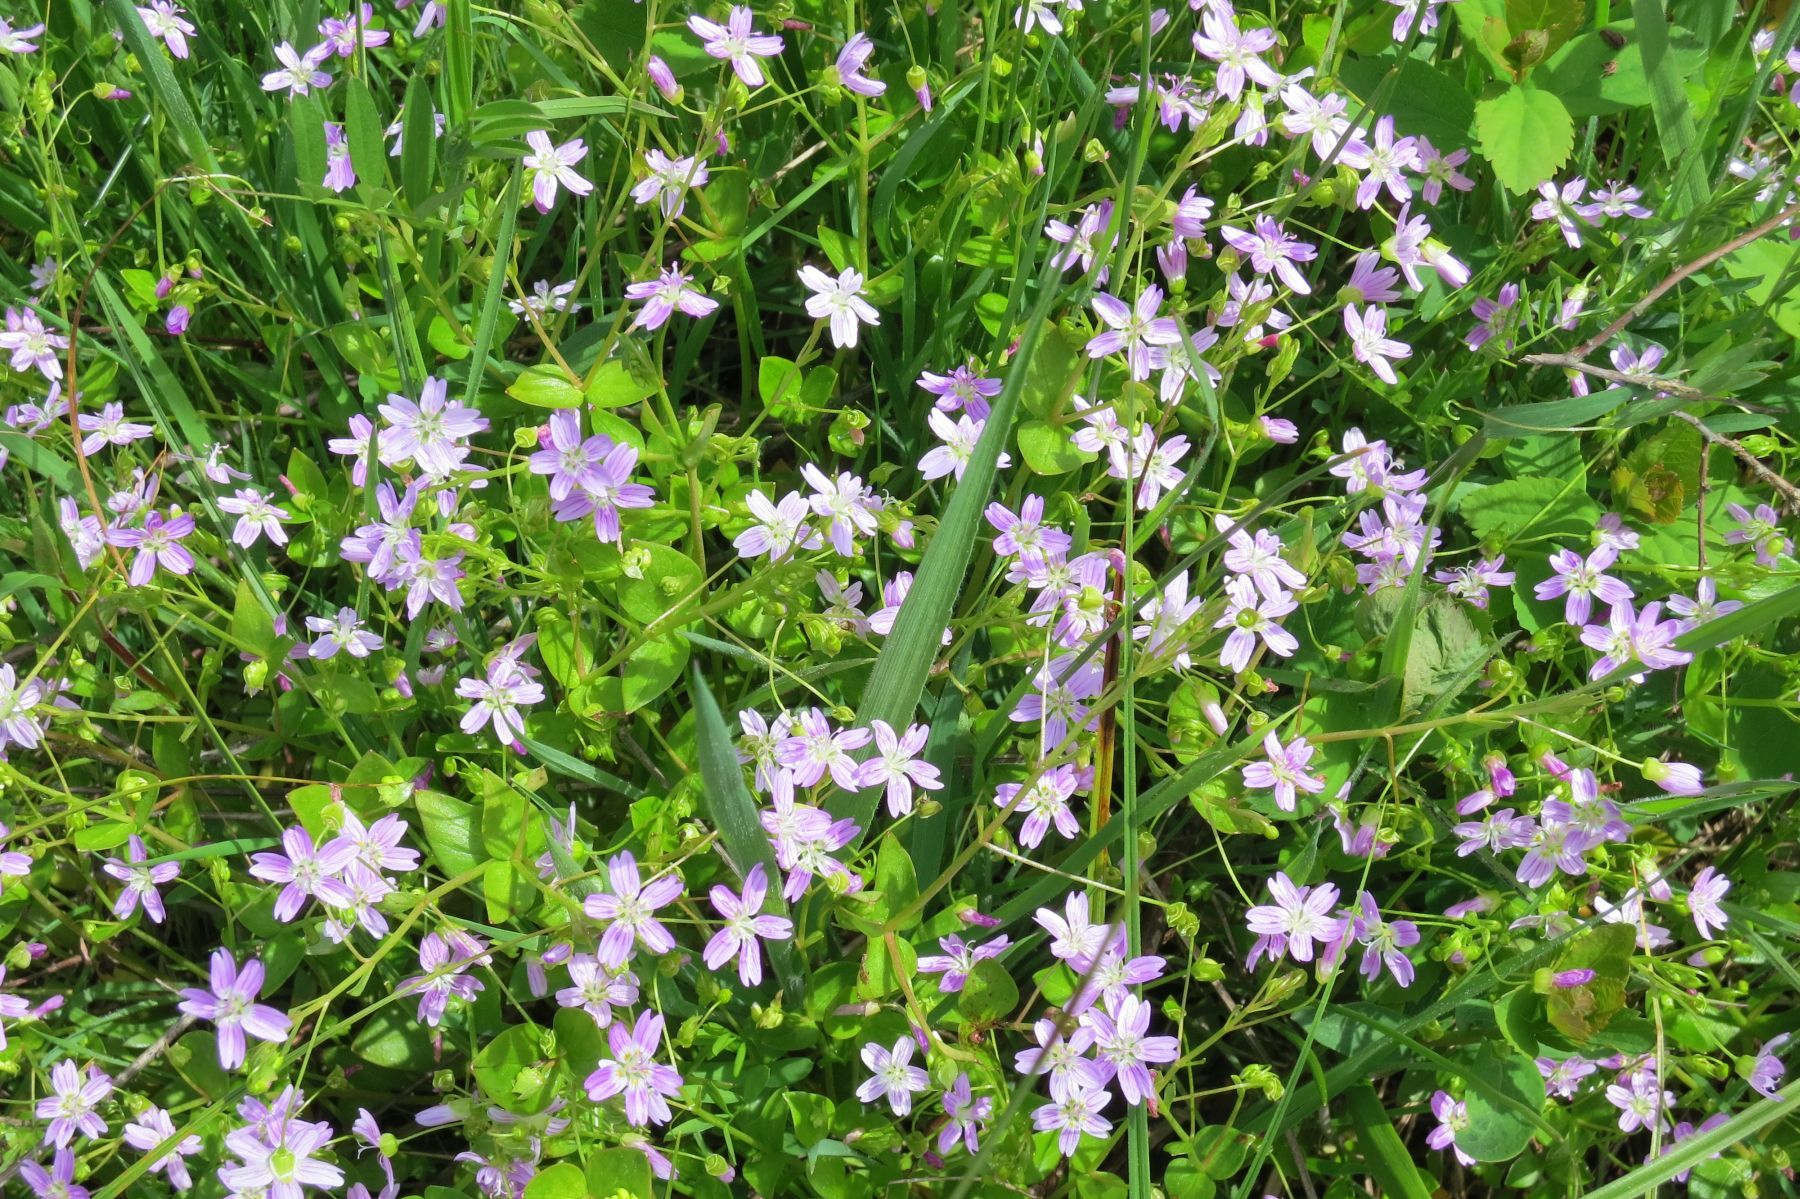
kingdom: Plantae
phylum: Tracheophyta
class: Magnoliopsida
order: Caryophyllales
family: Montiaceae
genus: Claytonia
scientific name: Claytonia sibirica
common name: Pink purslane
